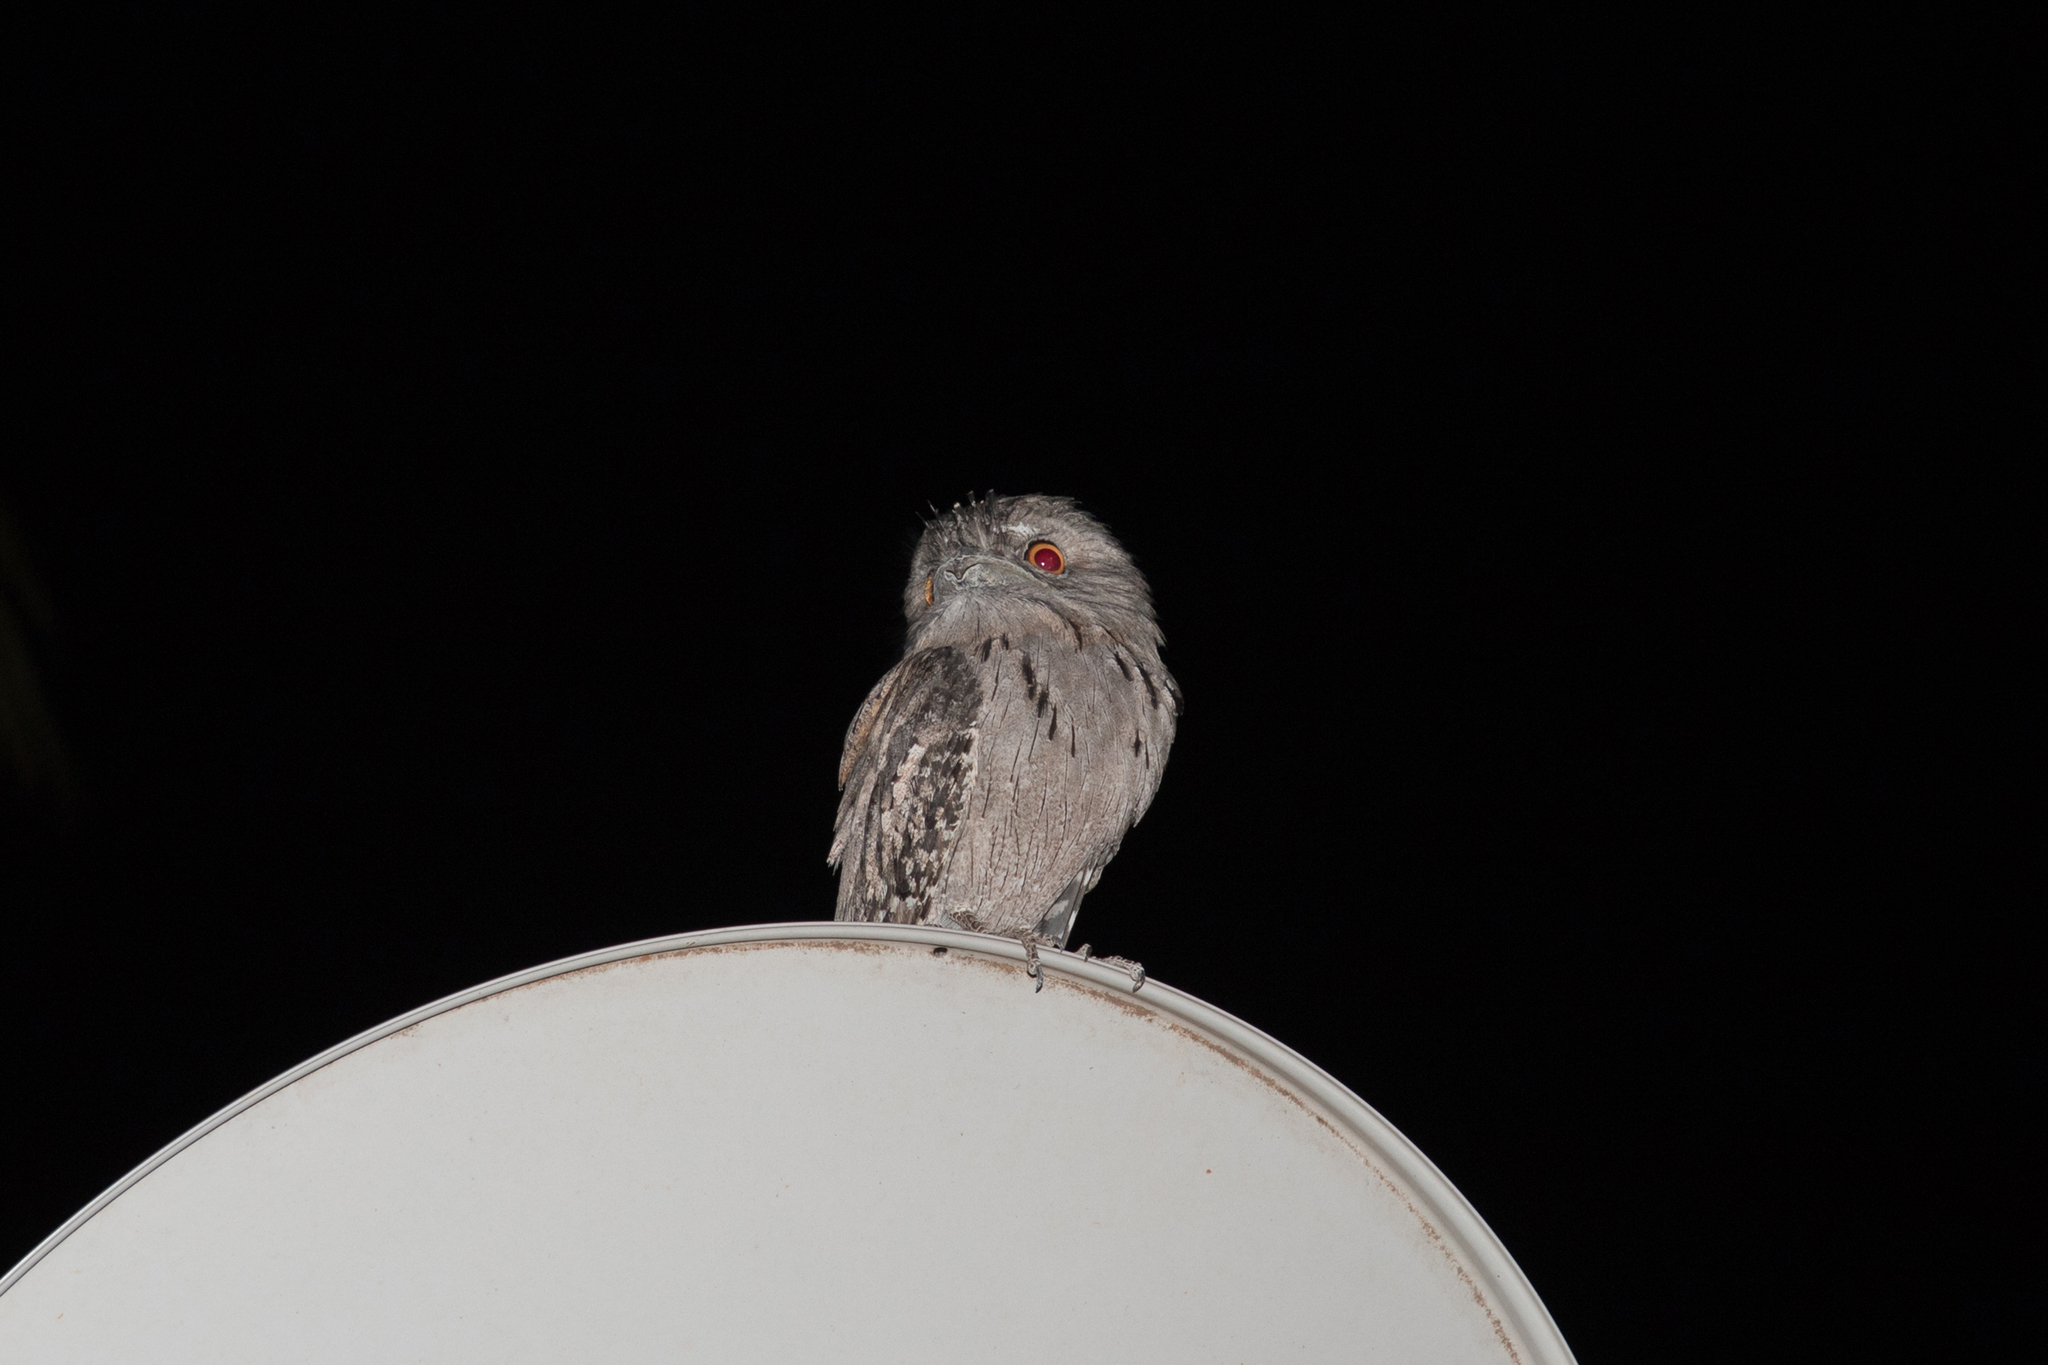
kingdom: Animalia
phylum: Chordata
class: Aves
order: Caprimulgiformes
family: Podargidae
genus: Podargus
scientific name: Podargus strigoides
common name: Tawny frogmouth
